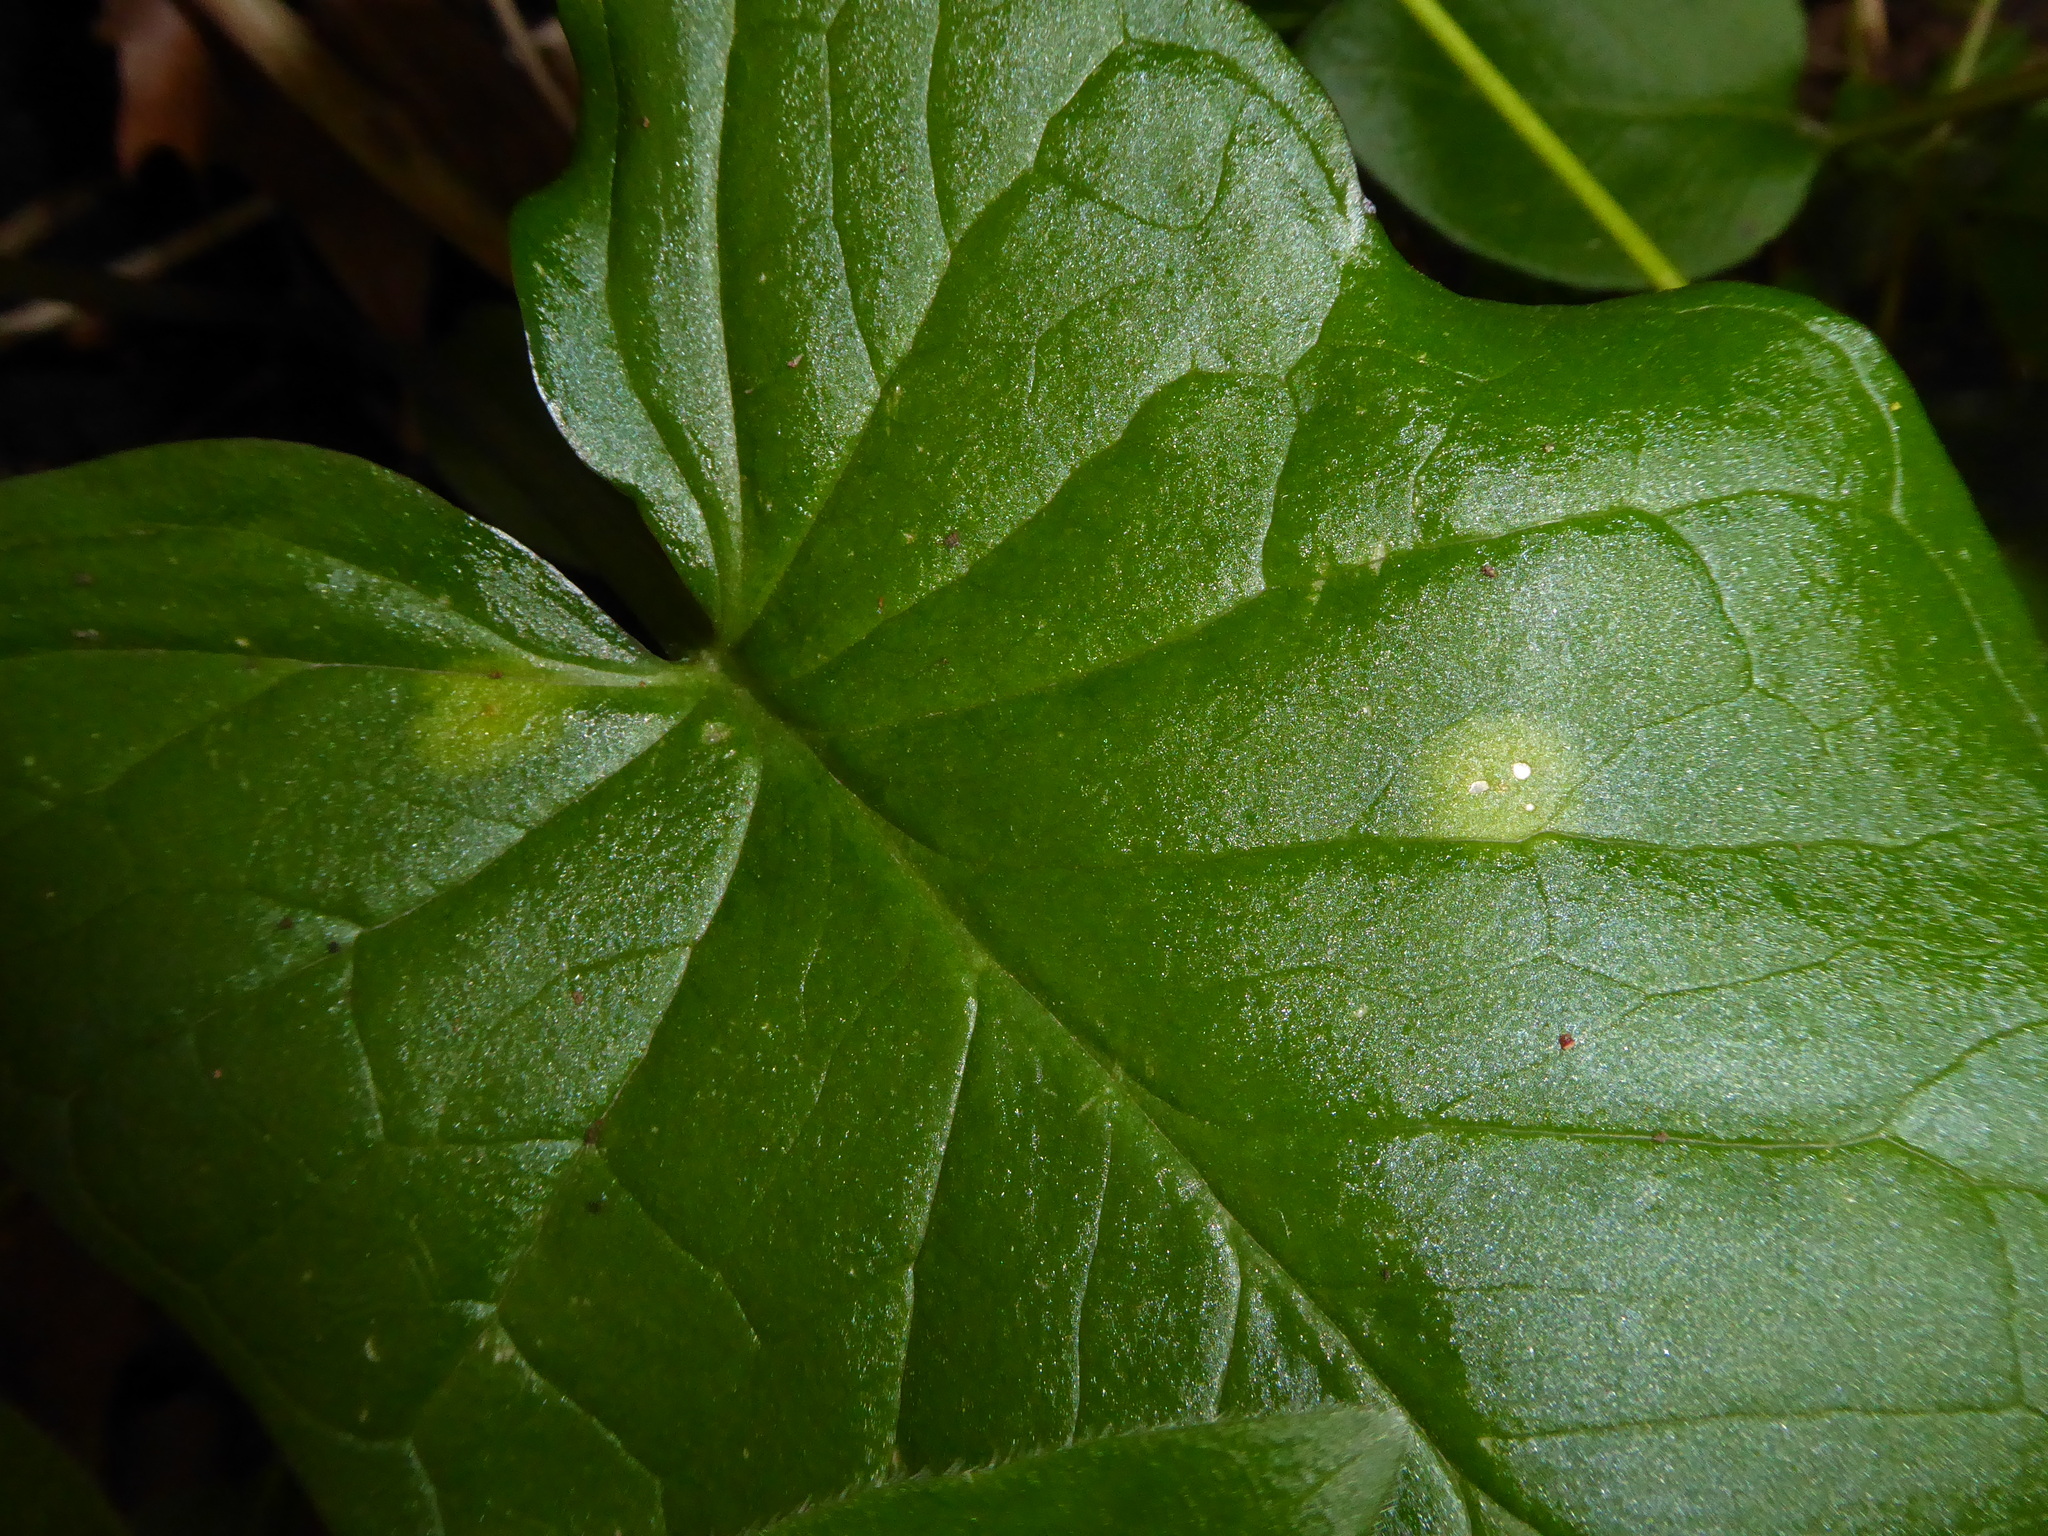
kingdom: Fungi
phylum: Basidiomycota
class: Pucciniomycetes
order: Pucciniales
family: Pucciniaceae
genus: Puccinia
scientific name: Puccinia sessilis
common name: Arum rust
